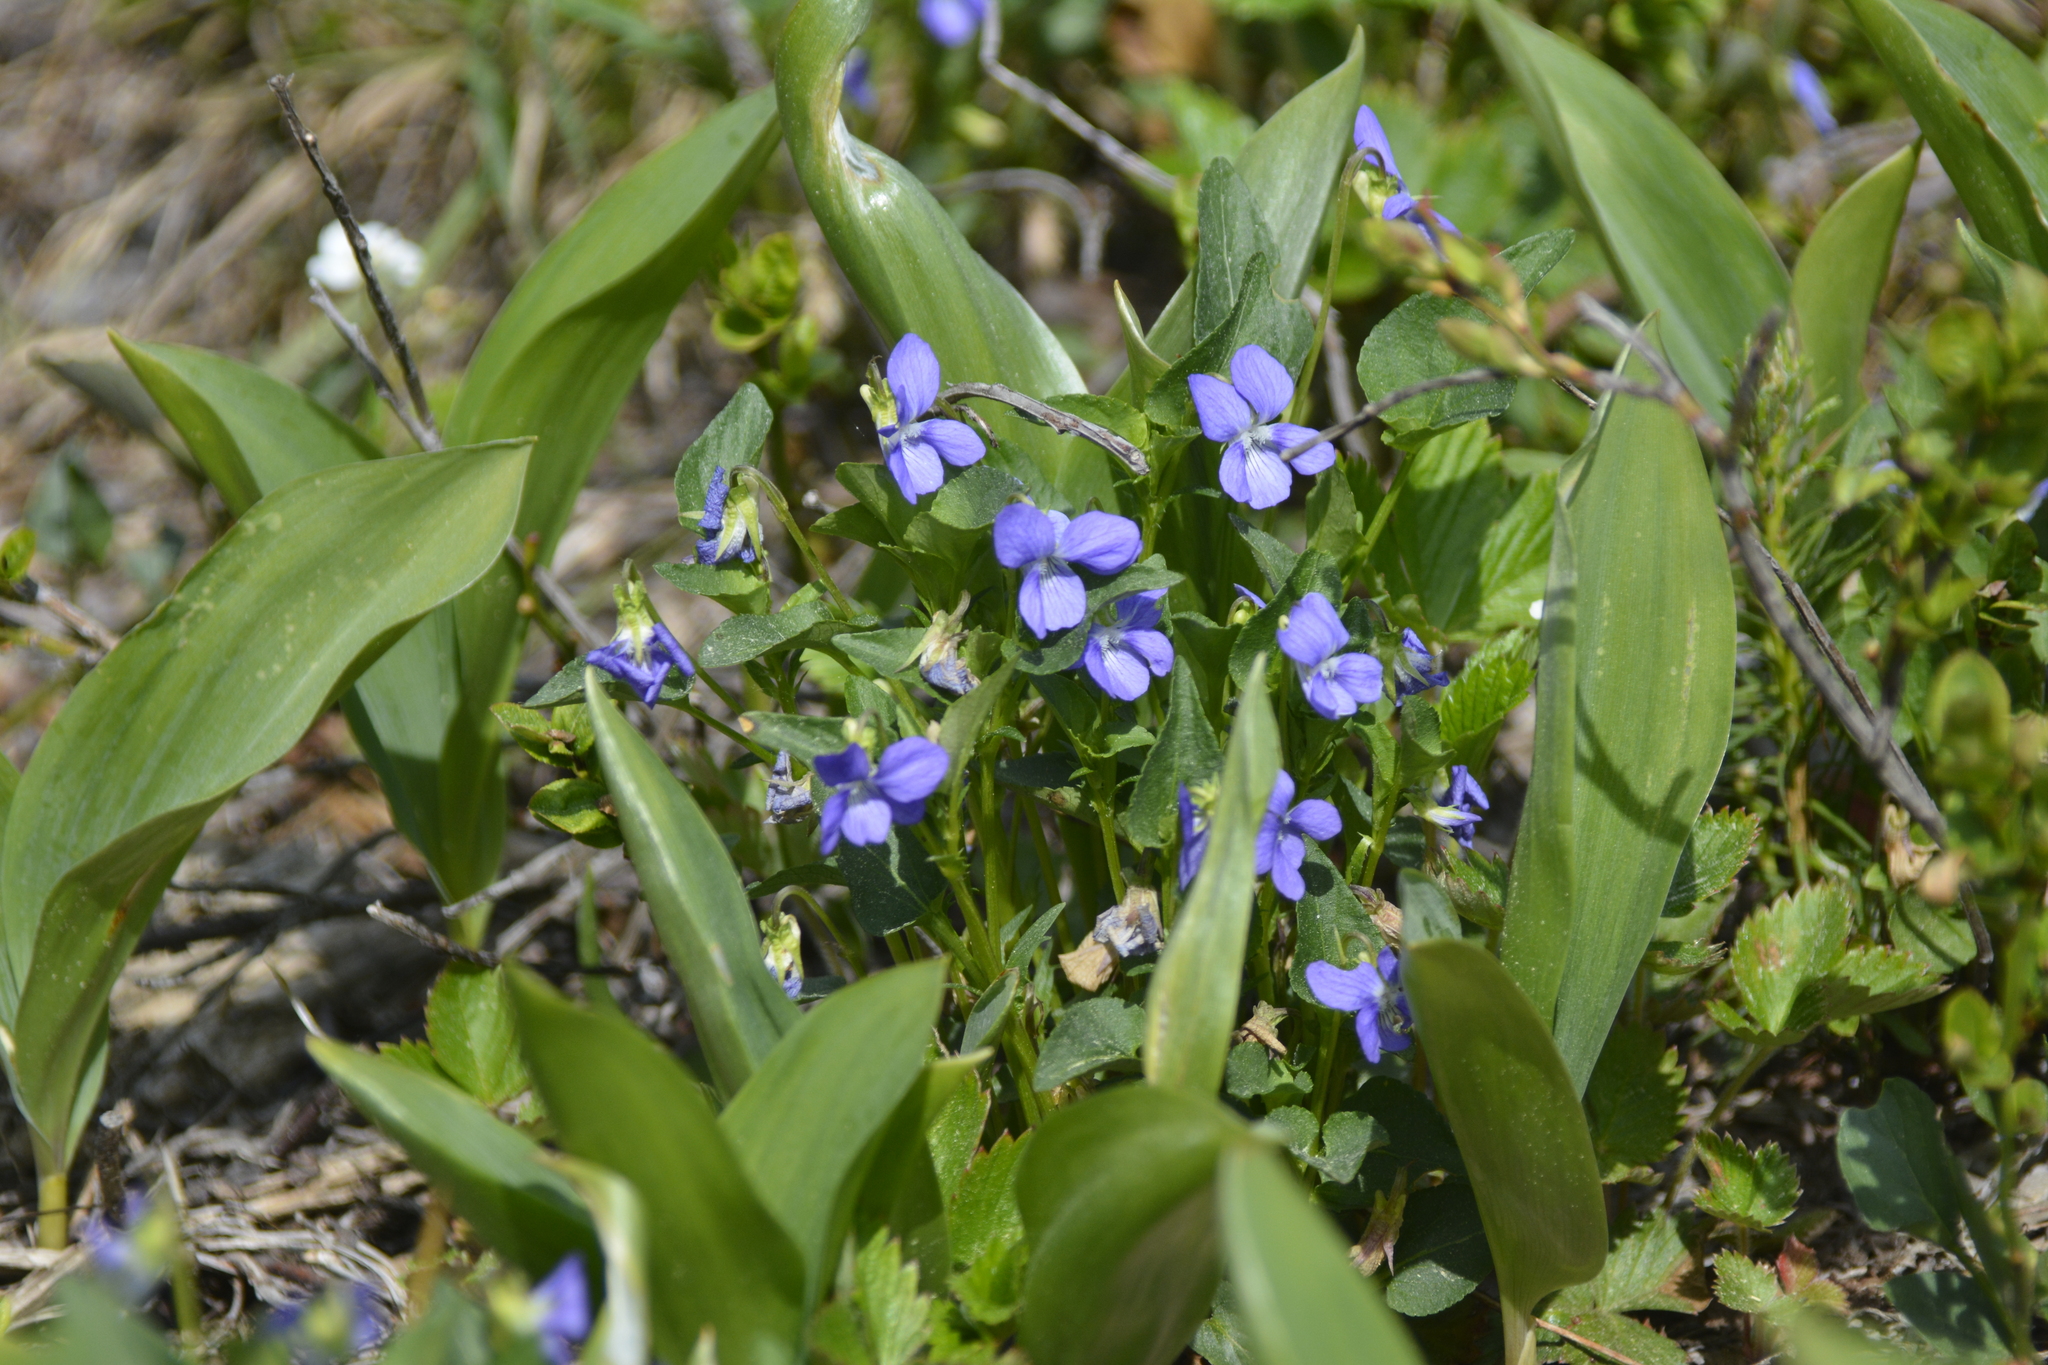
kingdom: Plantae
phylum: Tracheophyta
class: Magnoliopsida
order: Malpighiales
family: Violaceae
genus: Viola
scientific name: Viola canina
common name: Heath dog-violet
